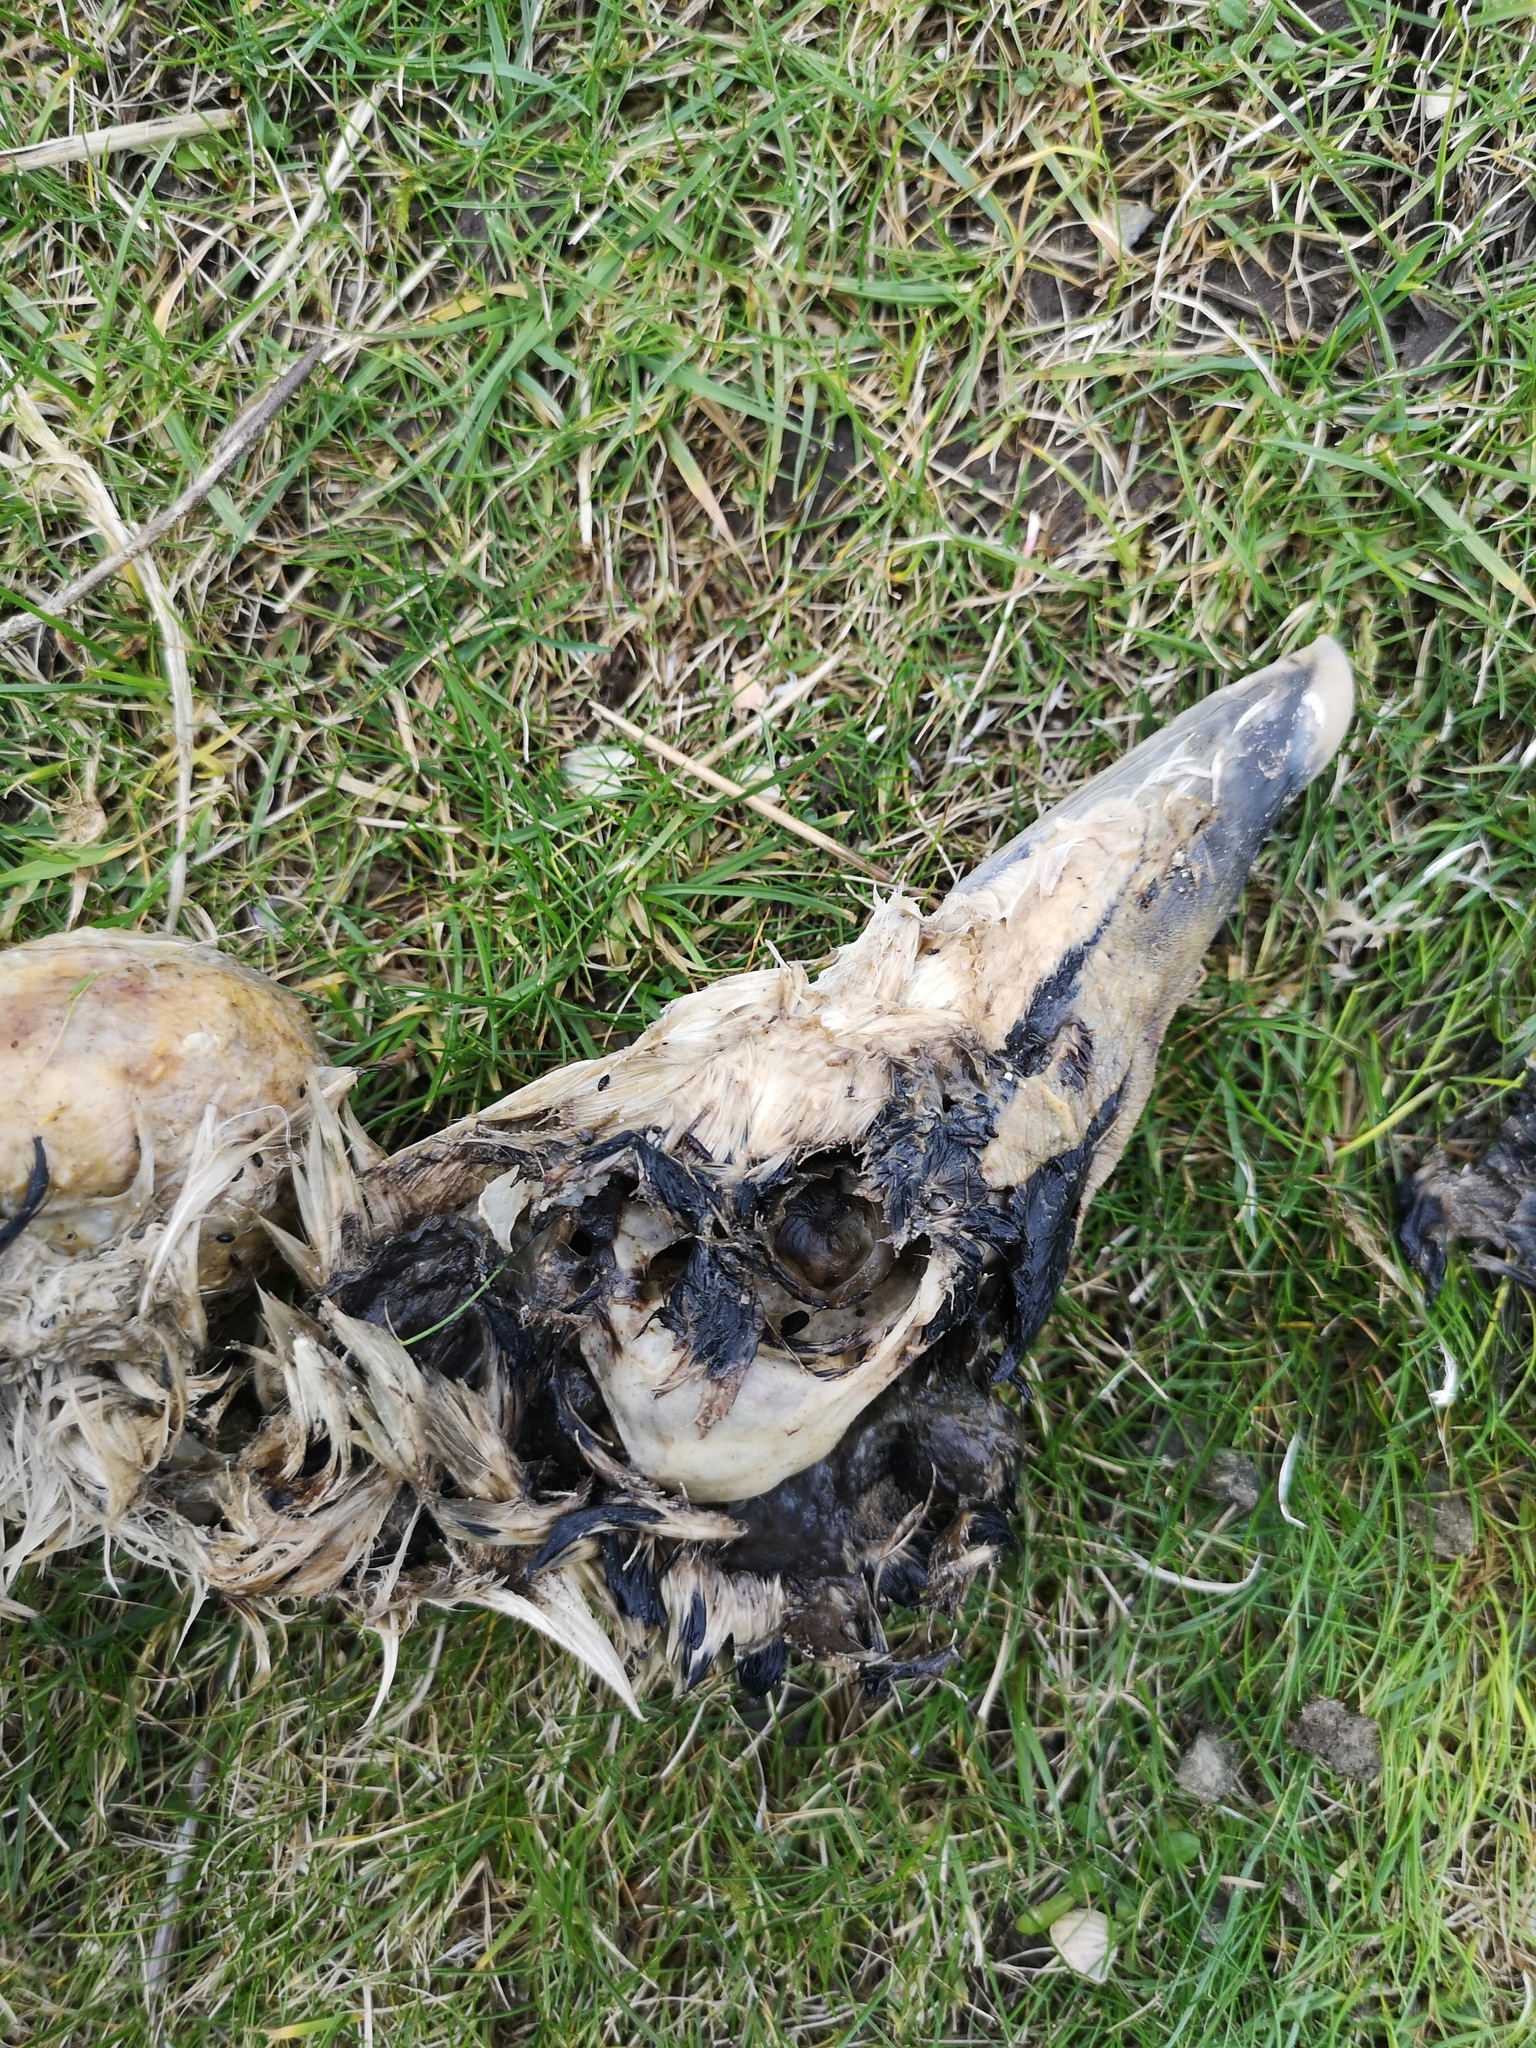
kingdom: Animalia
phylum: Chordata
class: Aves
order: Anseriformes
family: Anatidae
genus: Somateria
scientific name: Somateria mollissima
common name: Common eider
